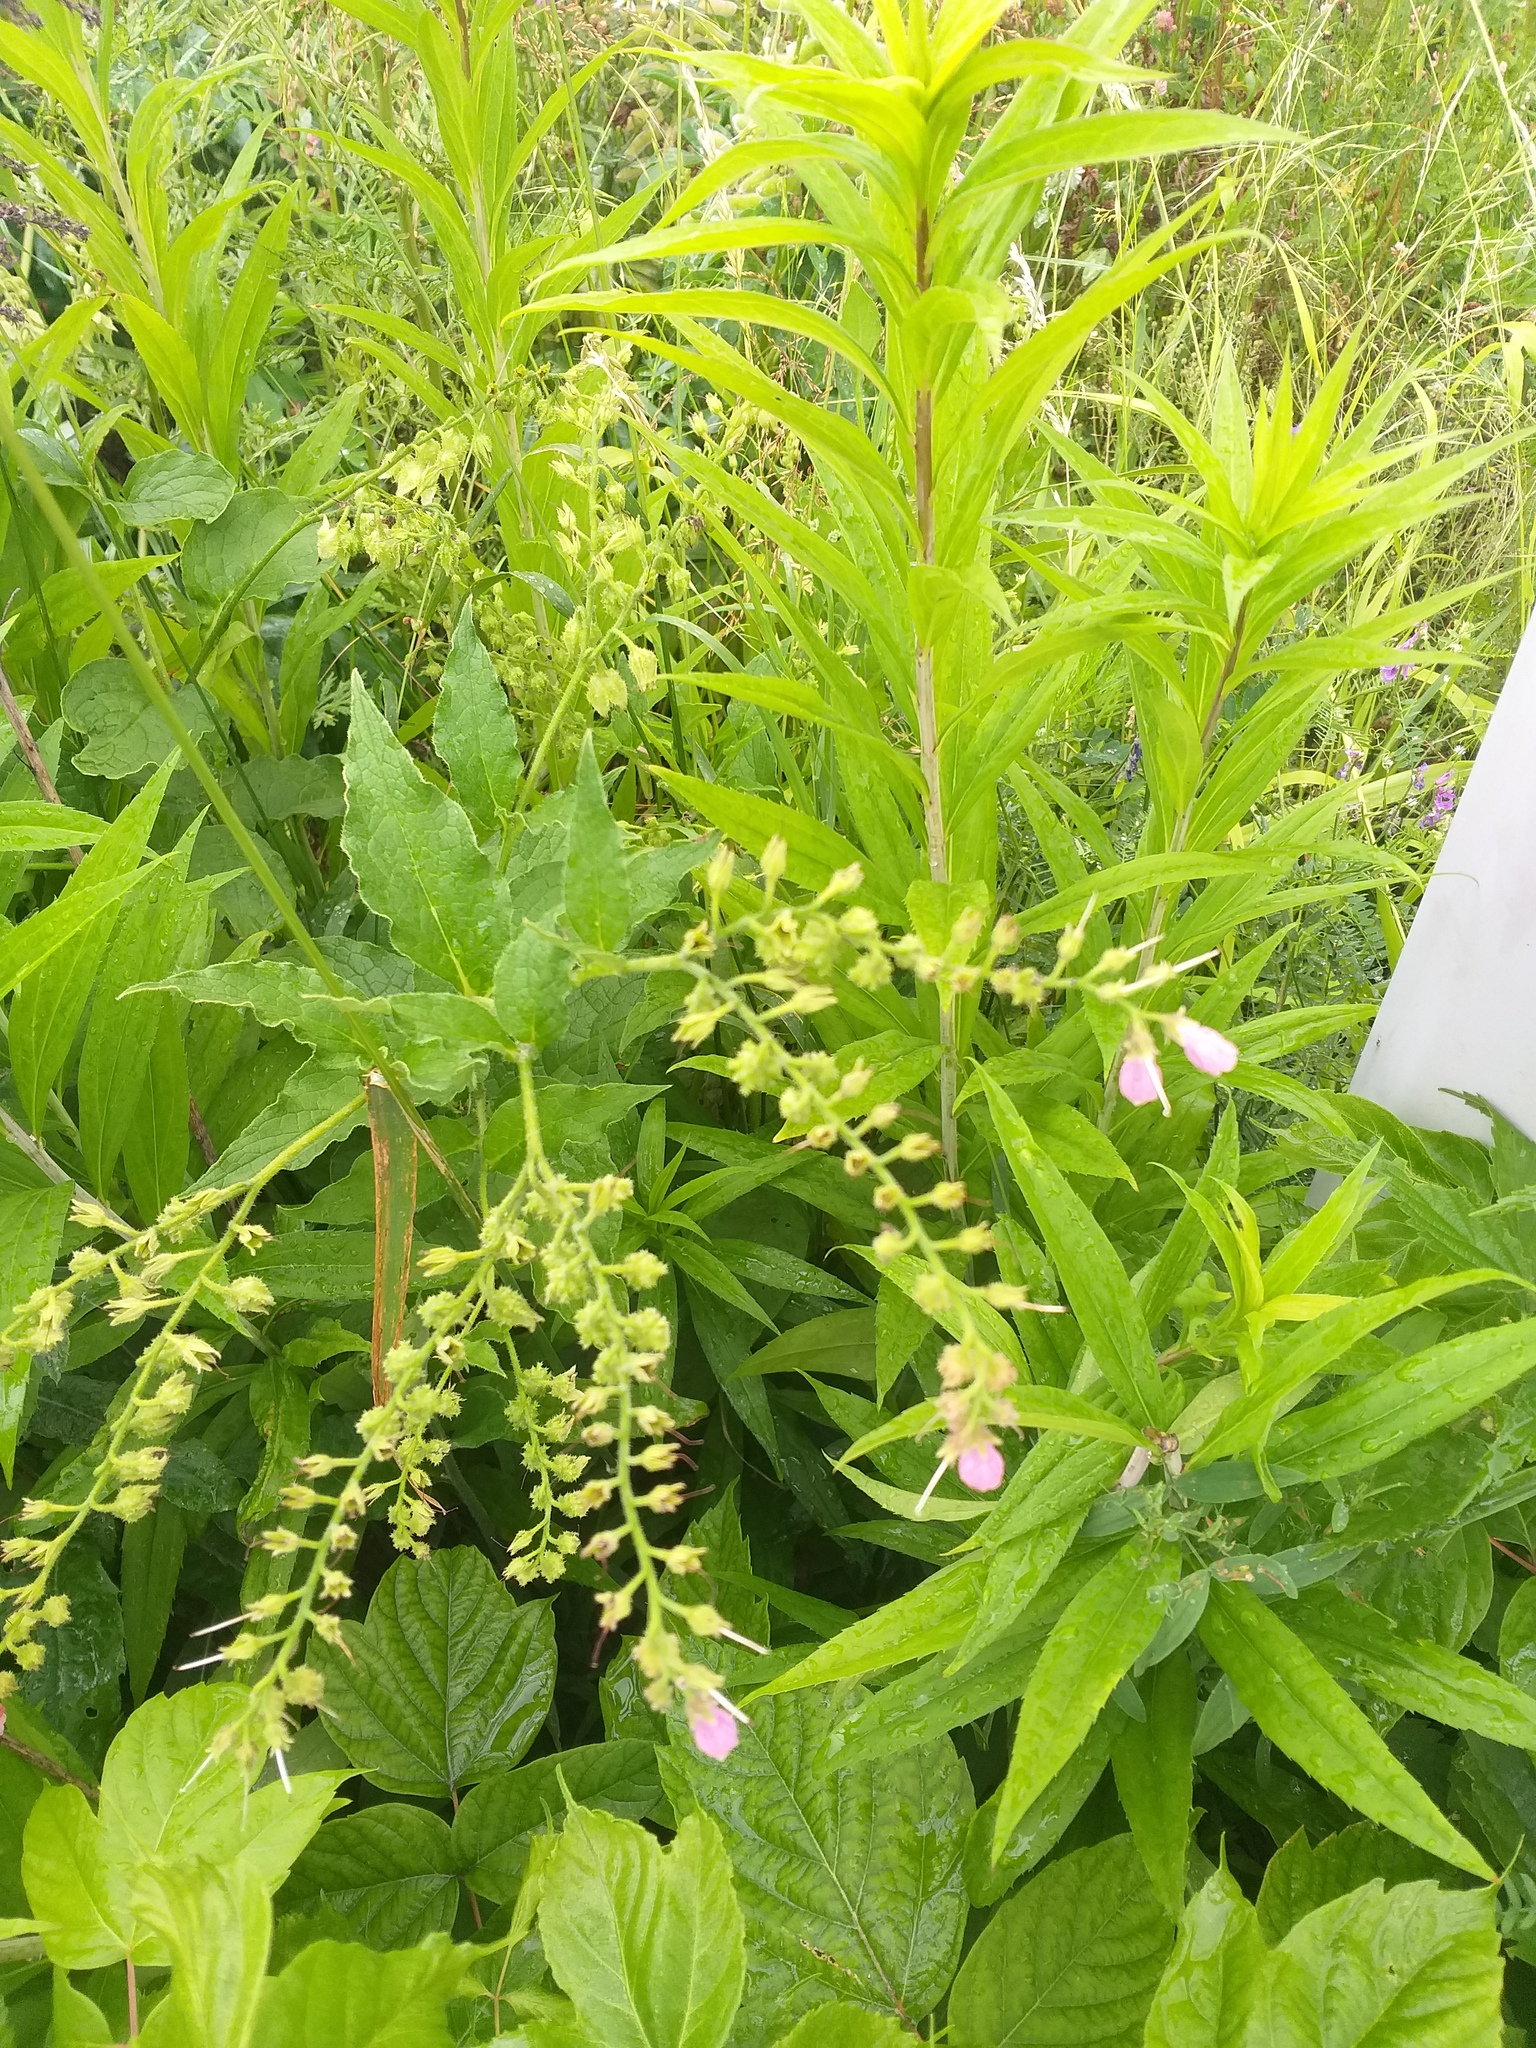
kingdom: Plantae
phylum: Tracheophyta
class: Magnoliopsida
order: Boraginales
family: Boraginaceae
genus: Symphytum
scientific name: Symphytum uplandicum
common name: Russian comfrey
